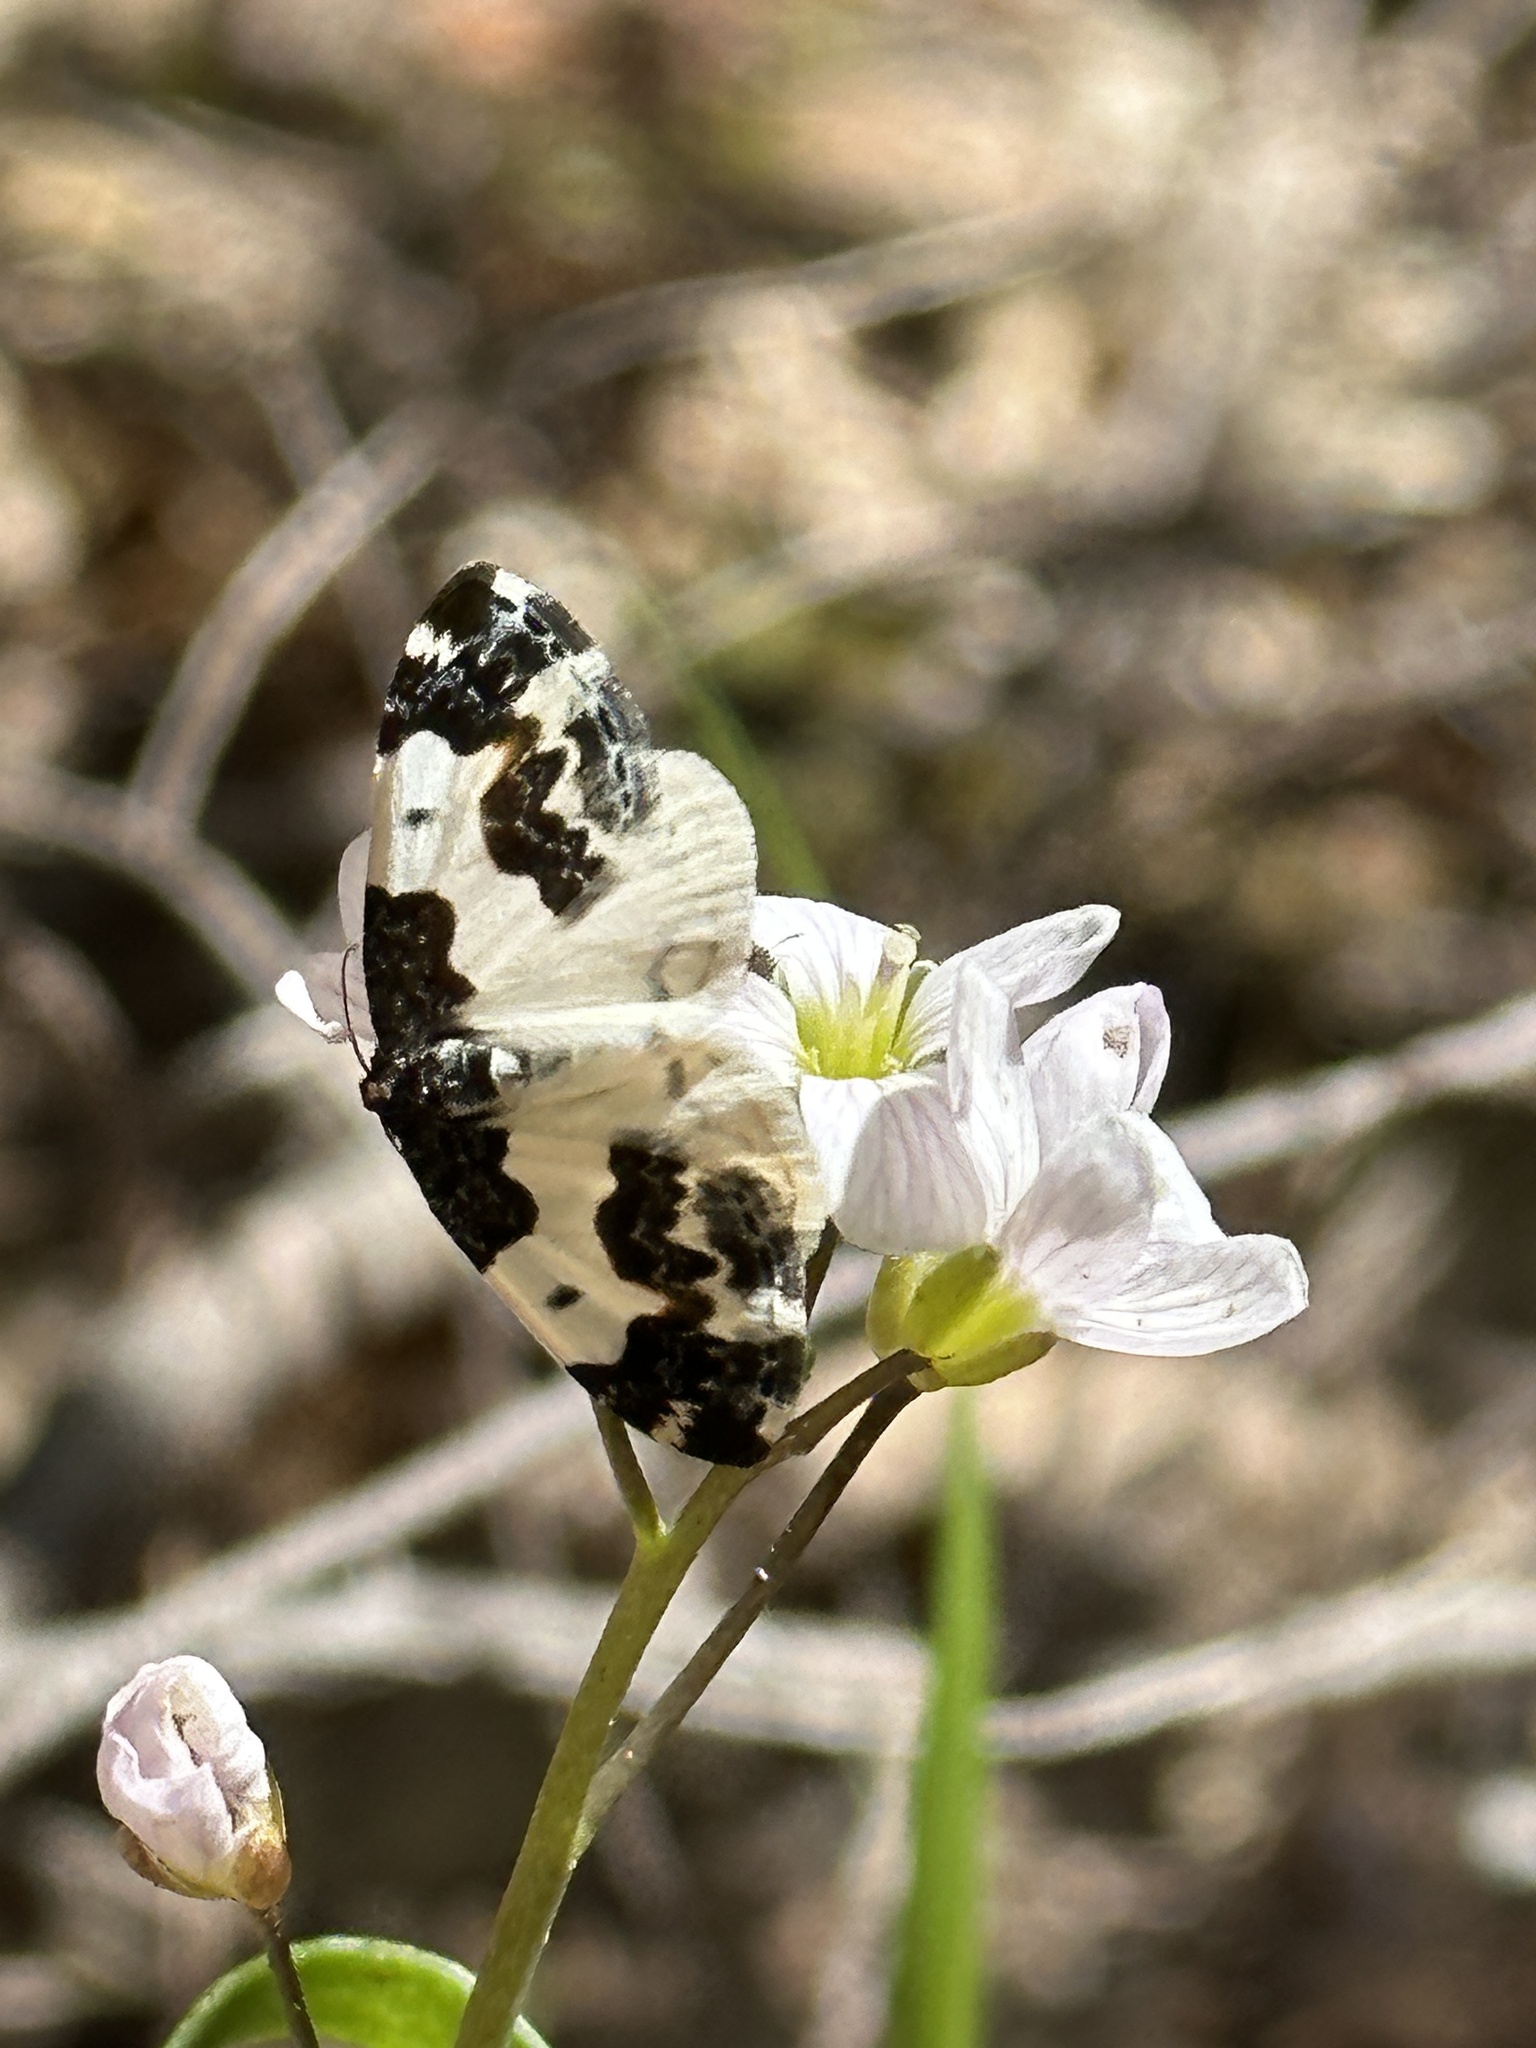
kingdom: Animalia
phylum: Arthropoda
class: Insecta
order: Lepidoptera
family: Geometridae
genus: Mesoleuca
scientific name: Mesoleuca gratulata
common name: Half-white carpet moth
